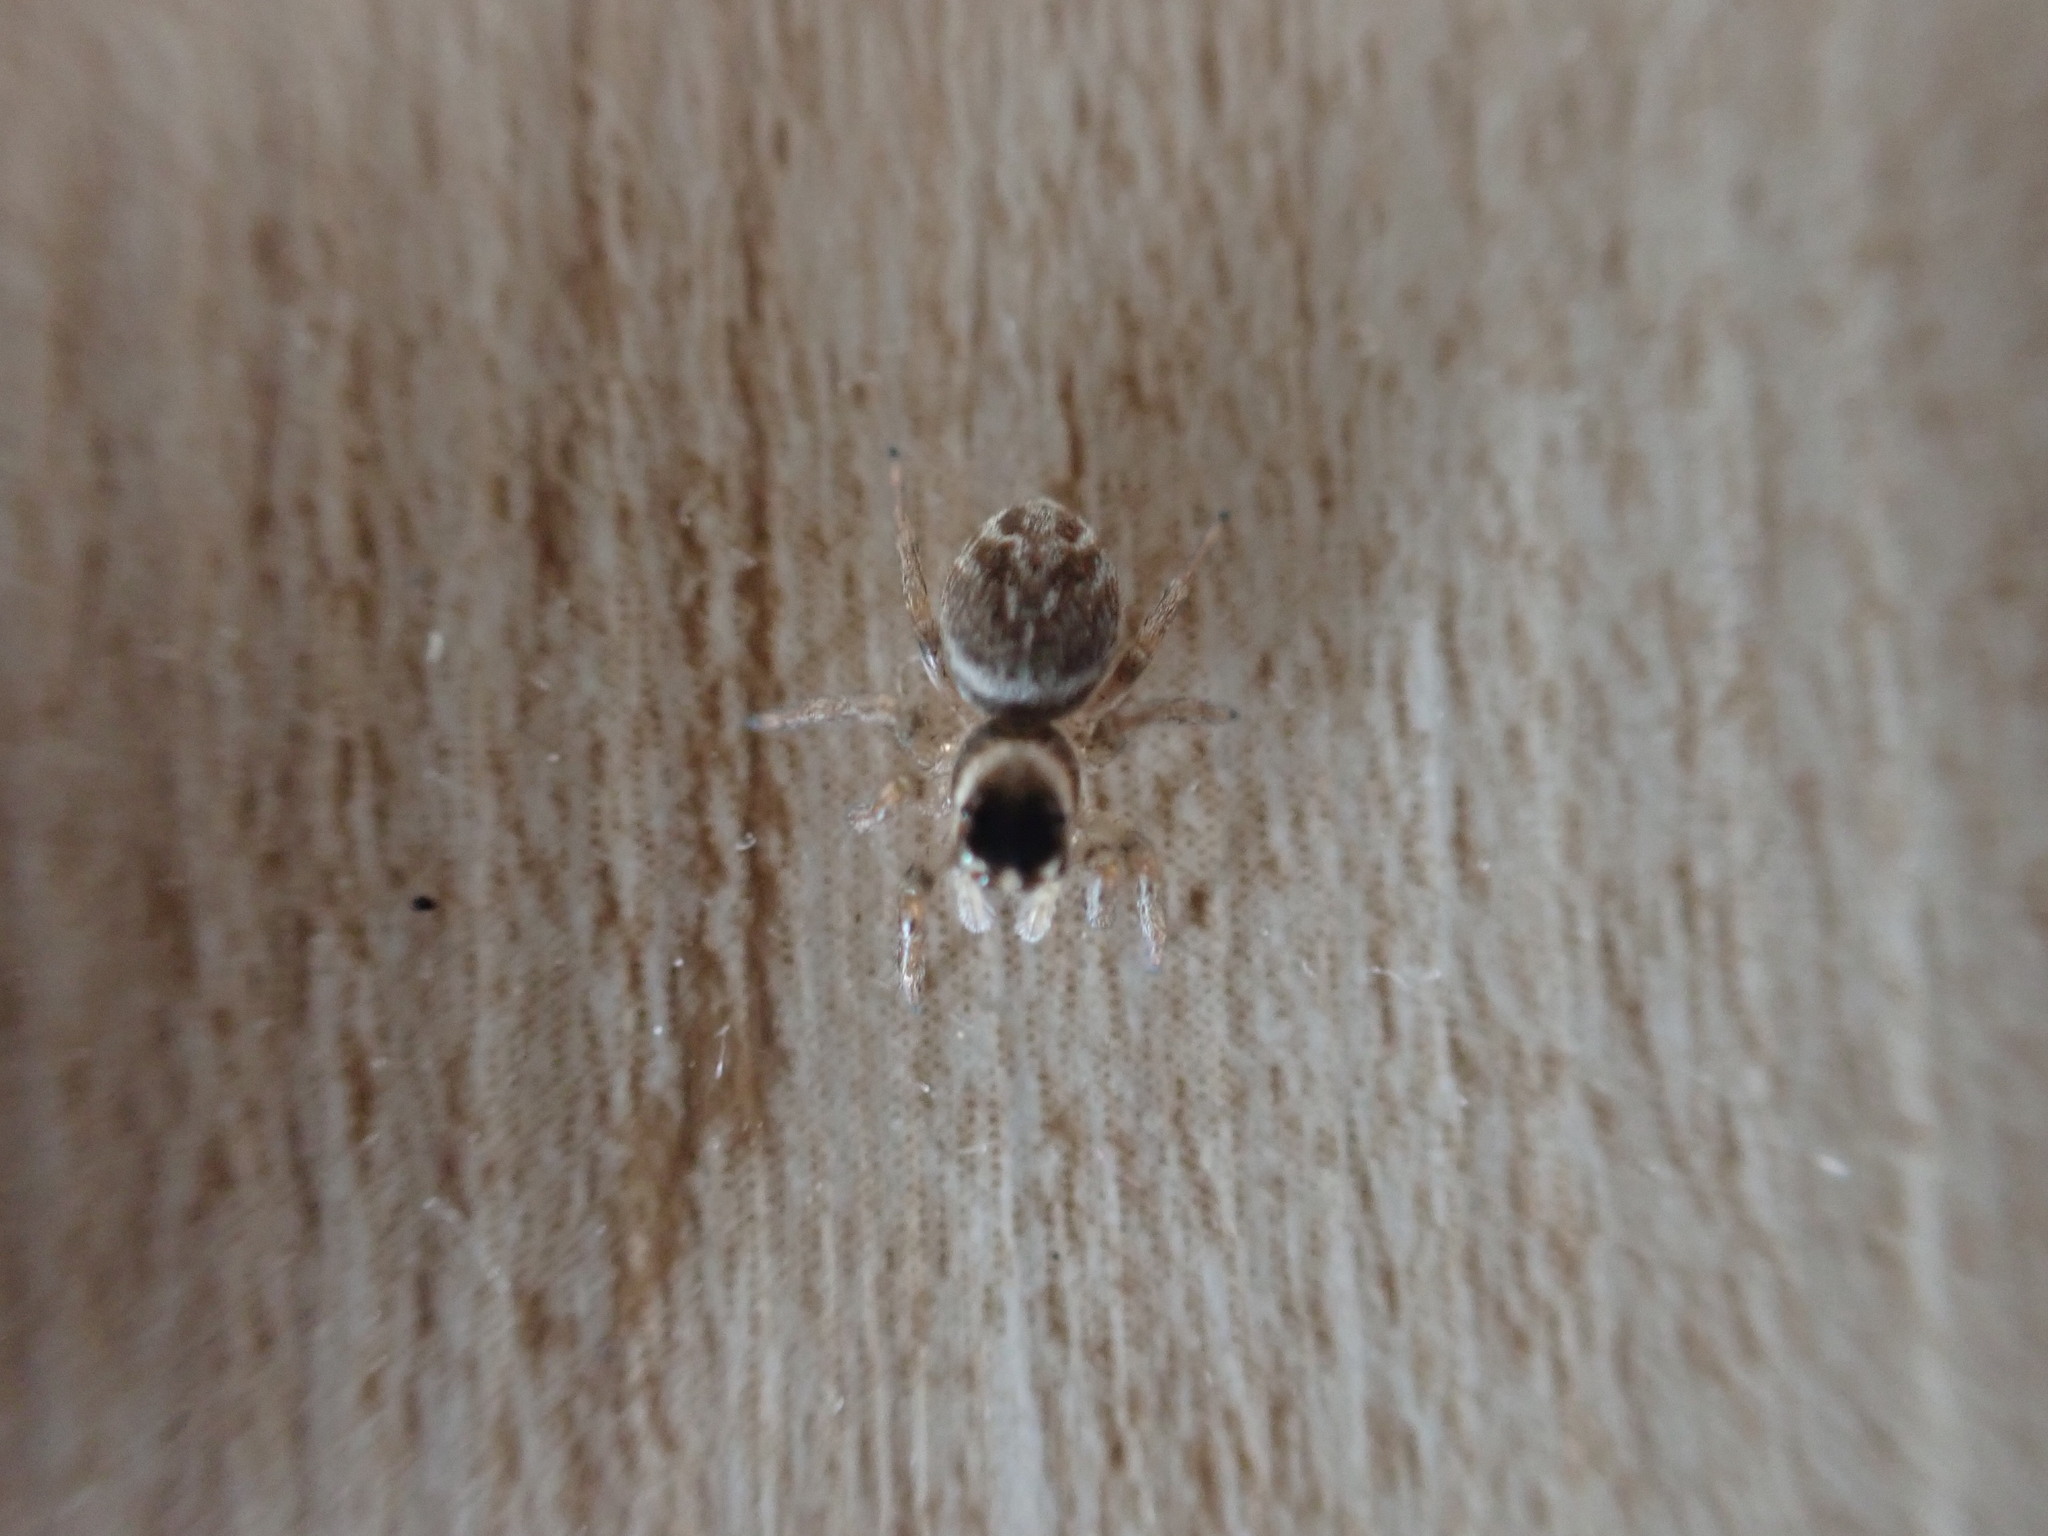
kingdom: Animalia
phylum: Arthropoda
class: Arachnida
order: Araneae
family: Salticidae
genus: Maratus
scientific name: Maratus griseus
